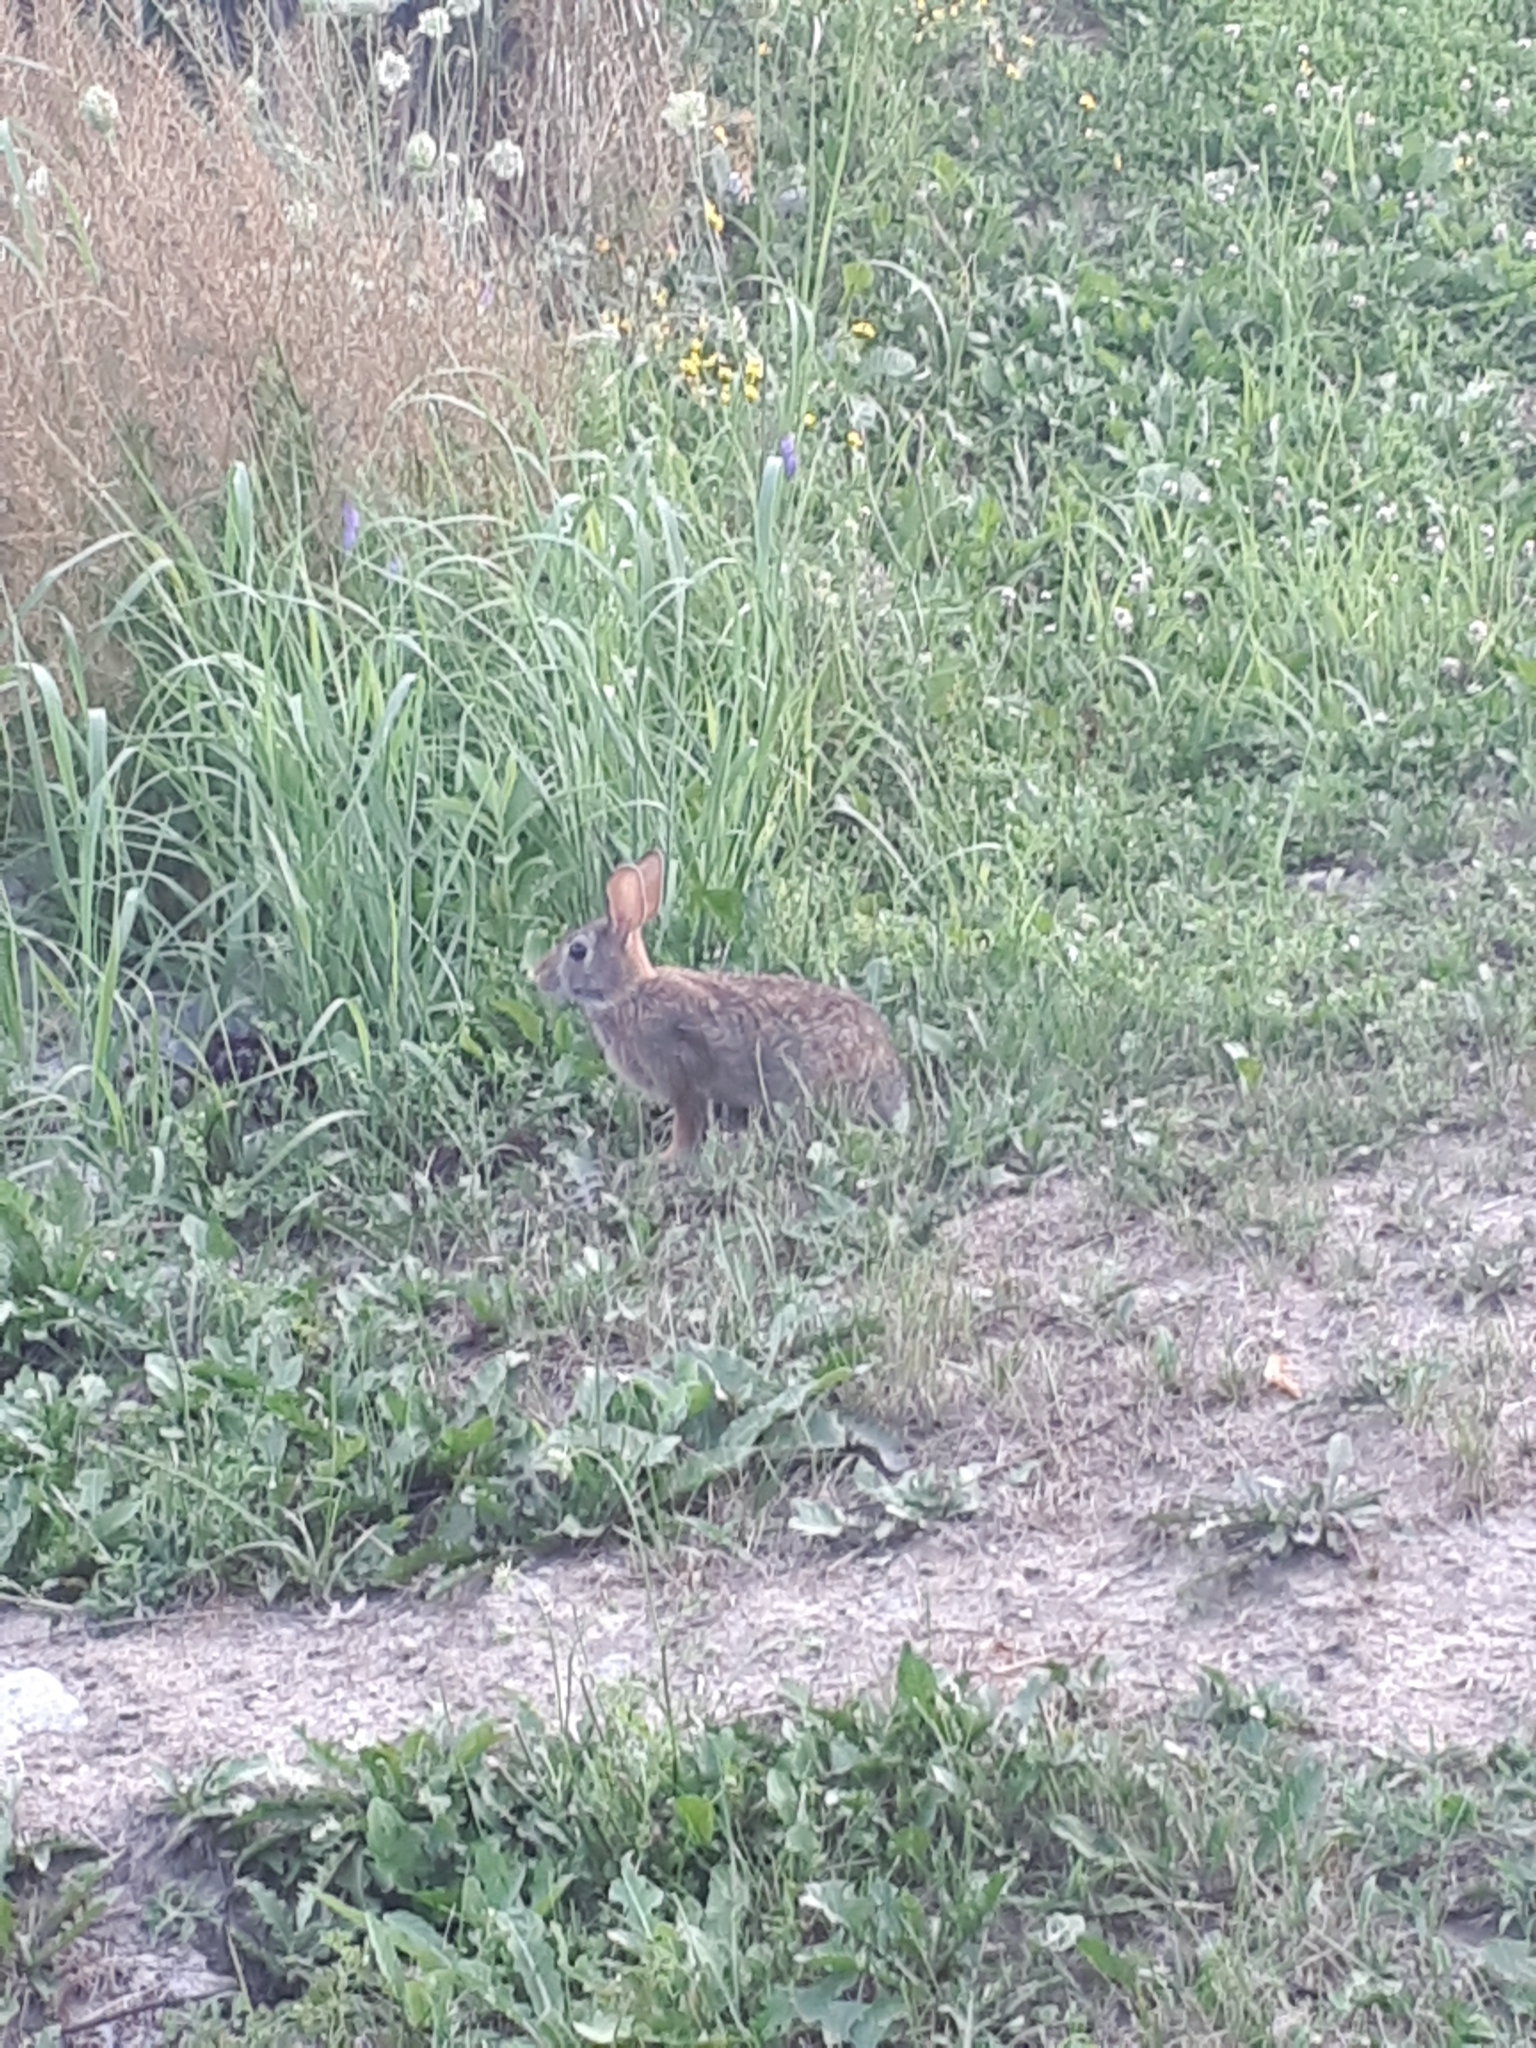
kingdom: Animalia
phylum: Chordata
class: Mammalia
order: Lagomorpha
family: Leporidae
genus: Sylvilagus
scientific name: Sylvilagus floridanus
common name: Eastern cottontail
